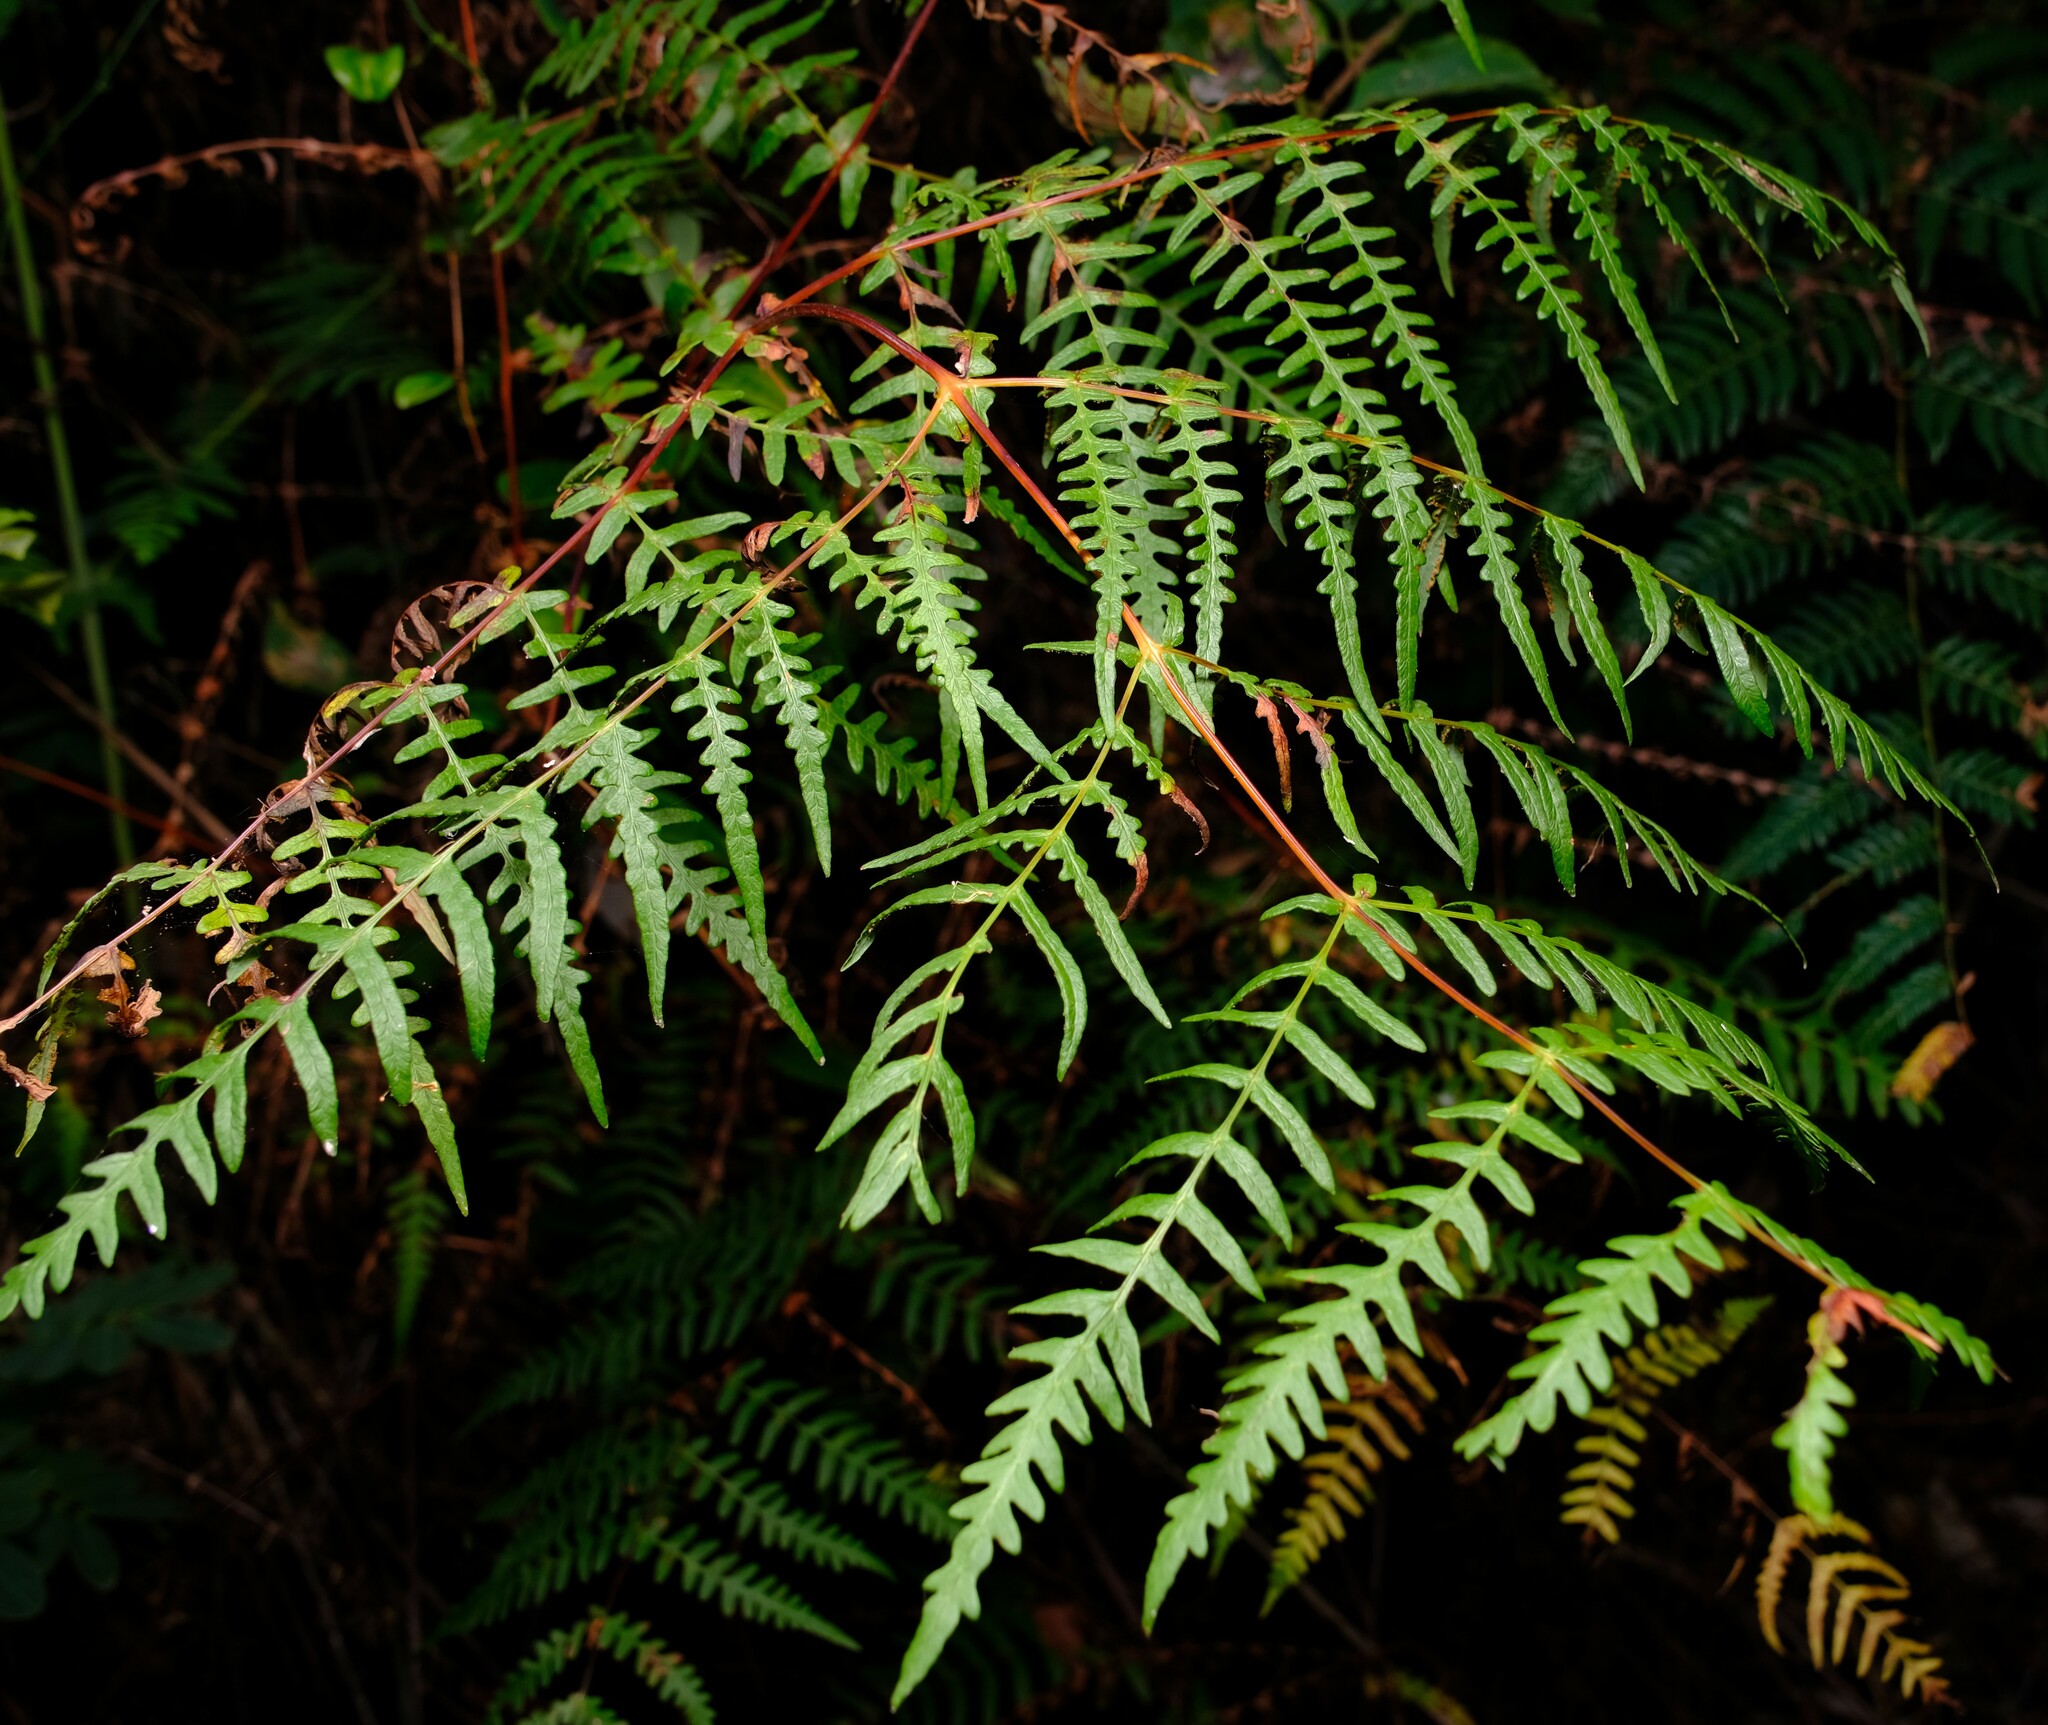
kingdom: Plantae
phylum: Tracheophyta
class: Polypodiopsida
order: Polypodiales
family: Dennstaedtiaceae
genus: Histiopteris
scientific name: Histiopteris incisa
